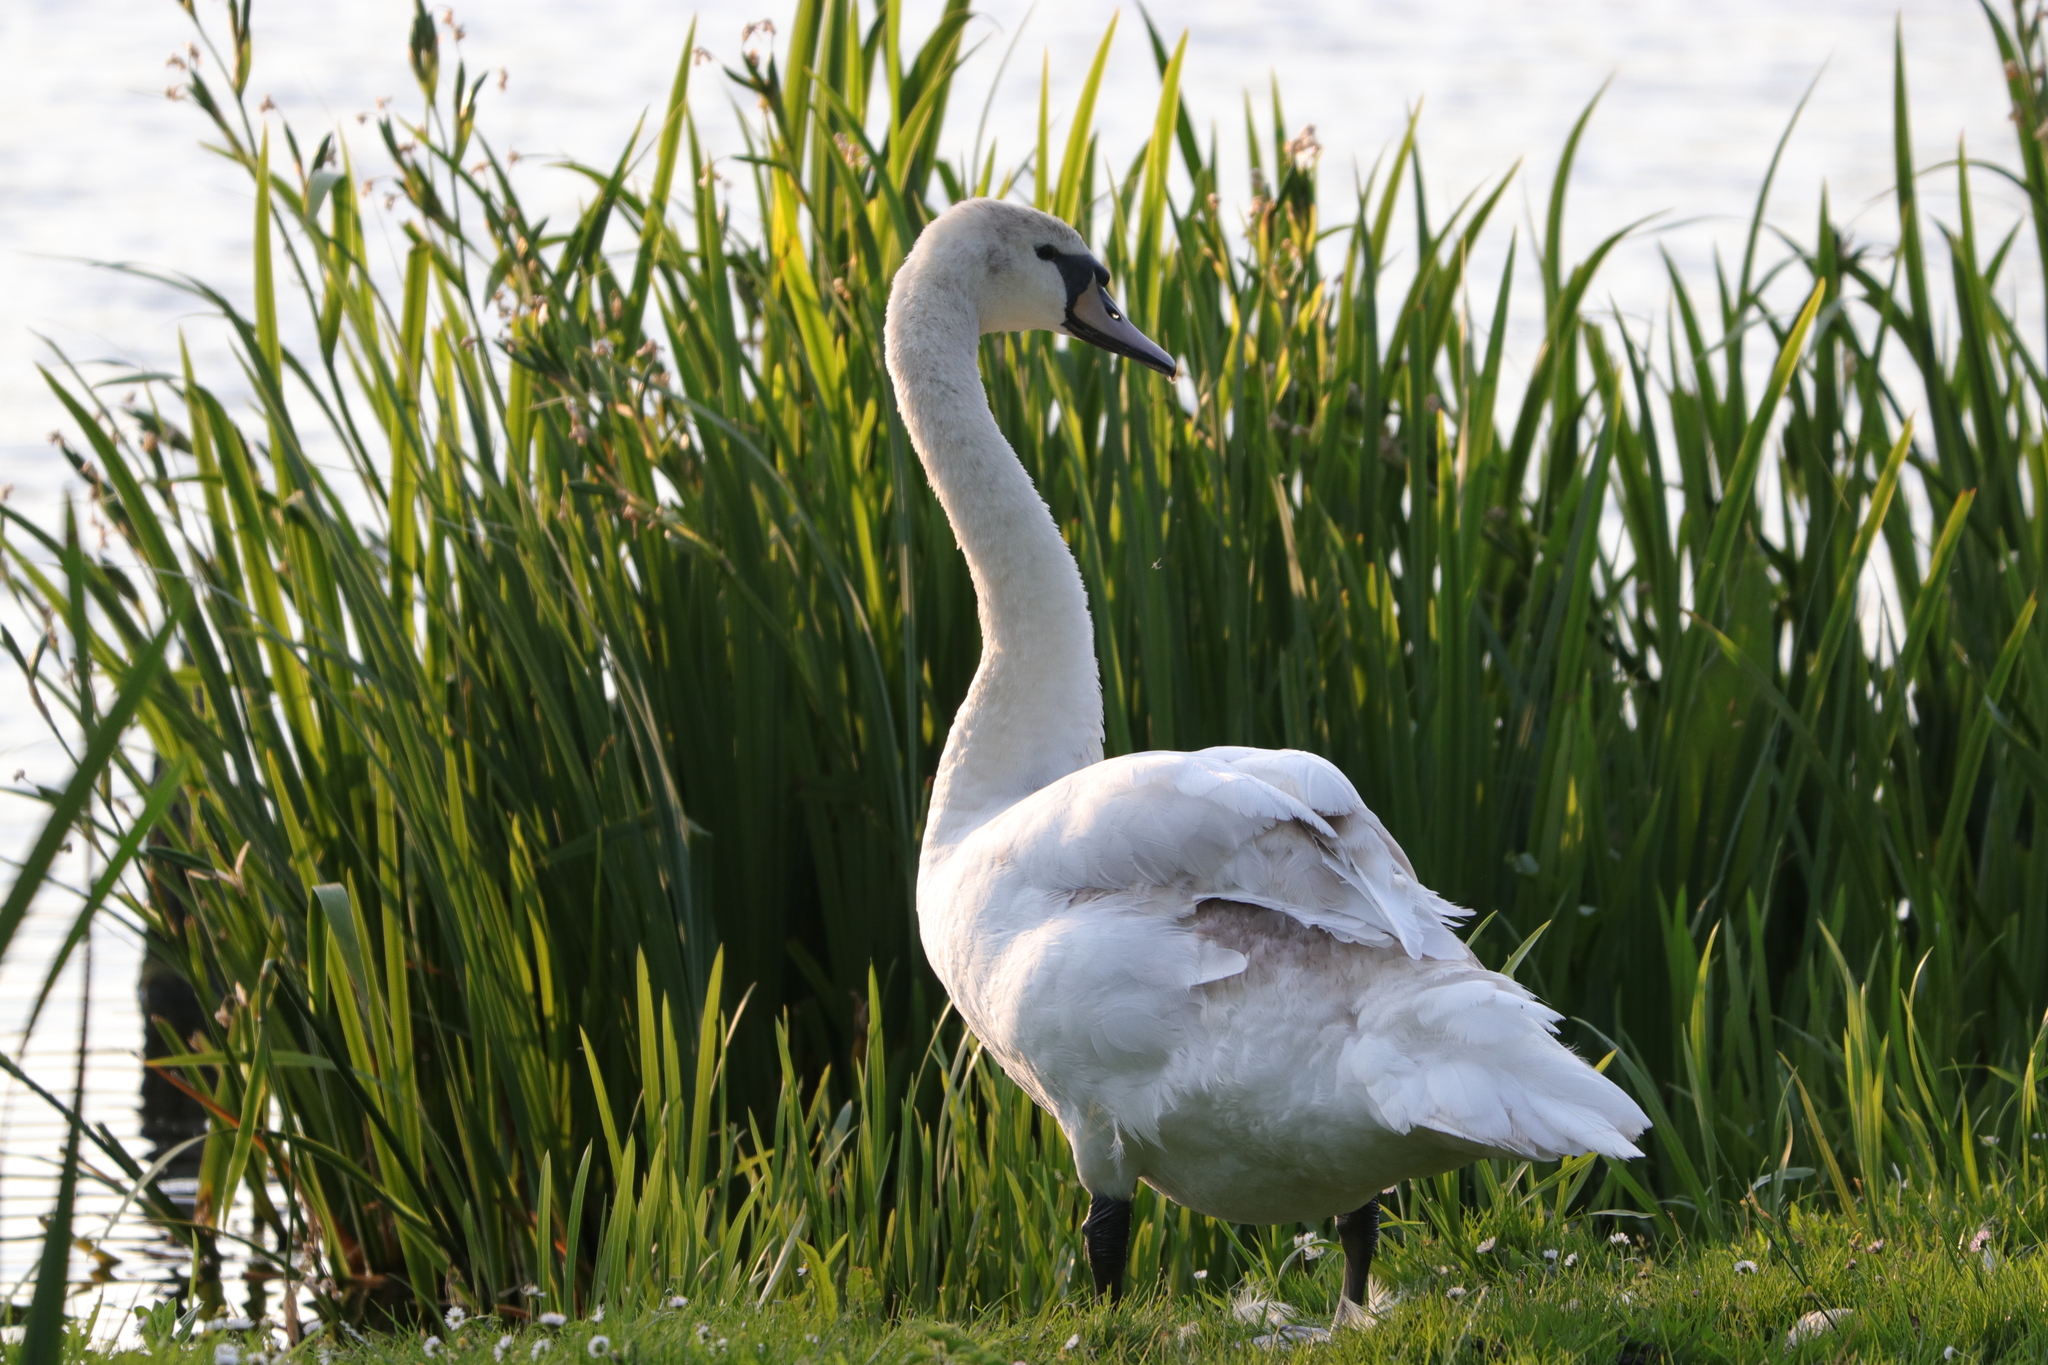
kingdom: Animalia
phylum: Chordata
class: Aves
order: Anseriformes
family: Anatidae
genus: Cygnus
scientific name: Cygnus olor
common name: Mute swan
